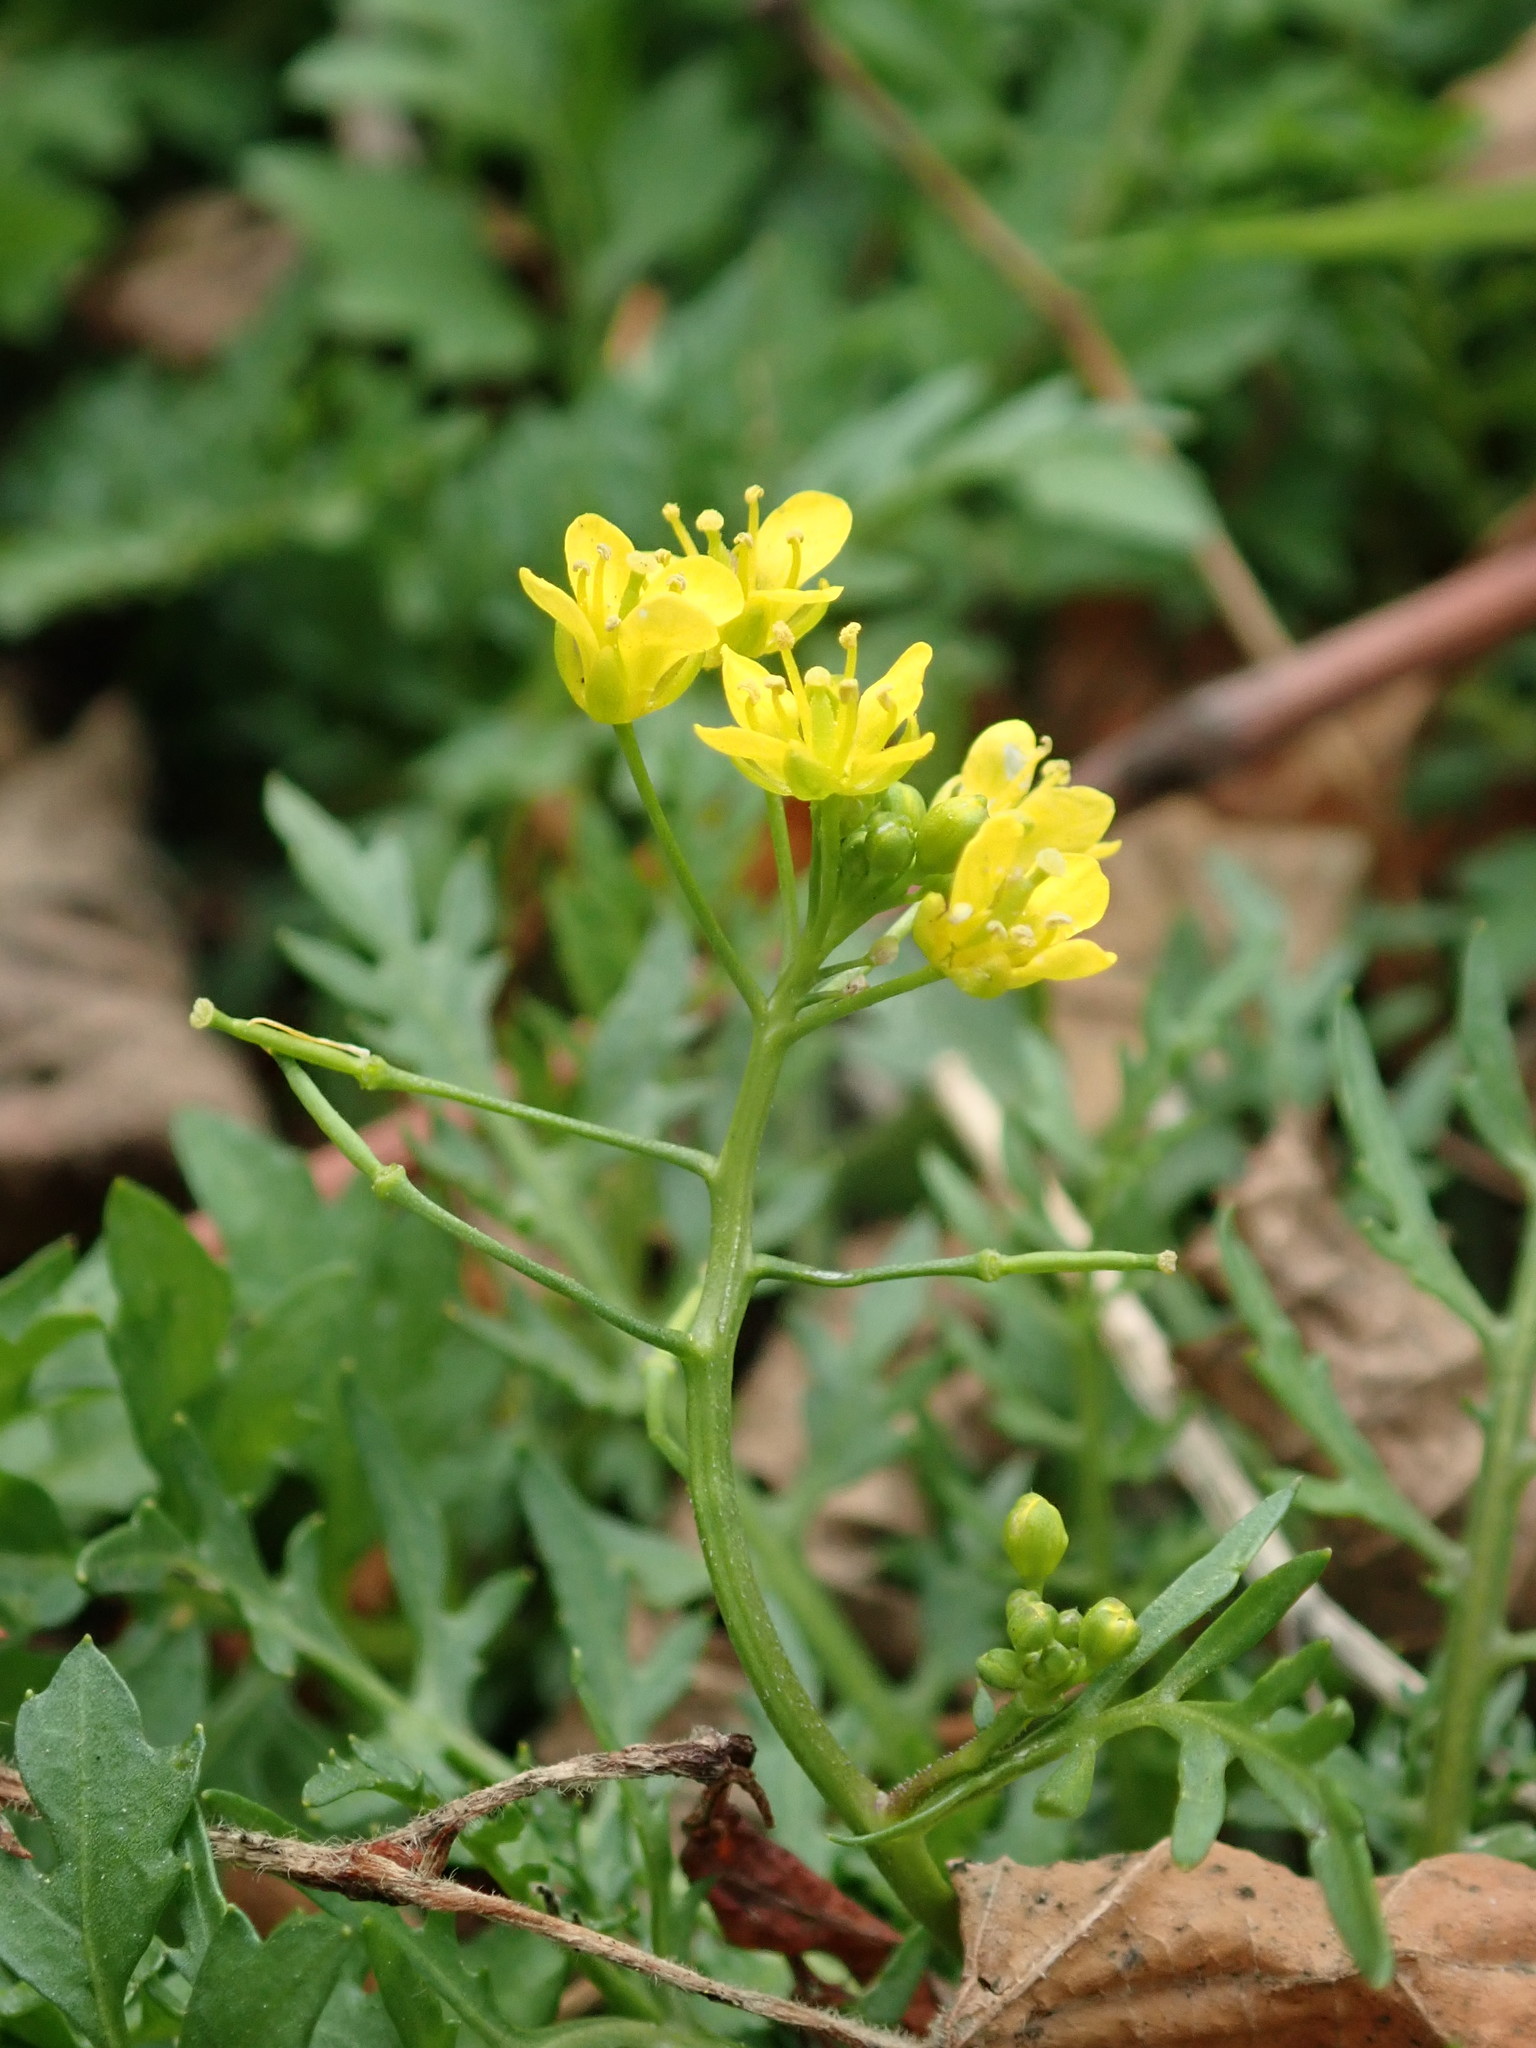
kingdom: Plantae
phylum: Tracheophyta
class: Magnoliopsida
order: Brassicales
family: Brassicaceae
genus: Rorippa
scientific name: Rorippa sylvestris
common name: Creeping yellowcress
